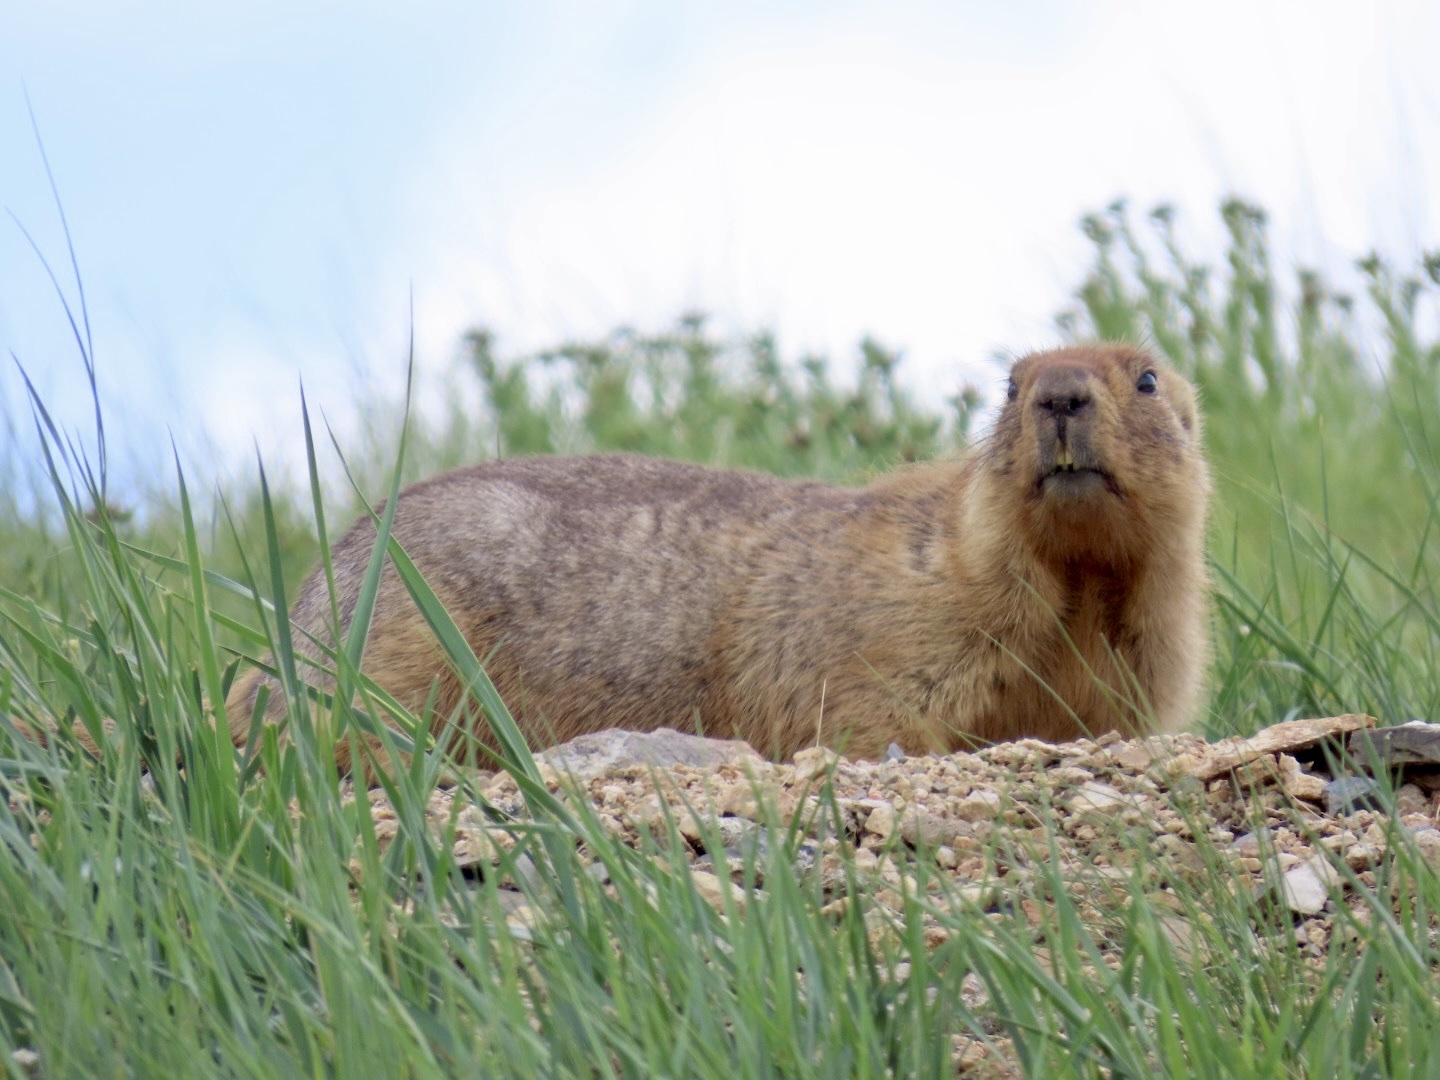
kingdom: Animalia
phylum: Chordata
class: Mammalia
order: Rodentia
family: Sciuridae
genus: Marmota
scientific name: Marmota sibirica
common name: Tarbagan marmot
